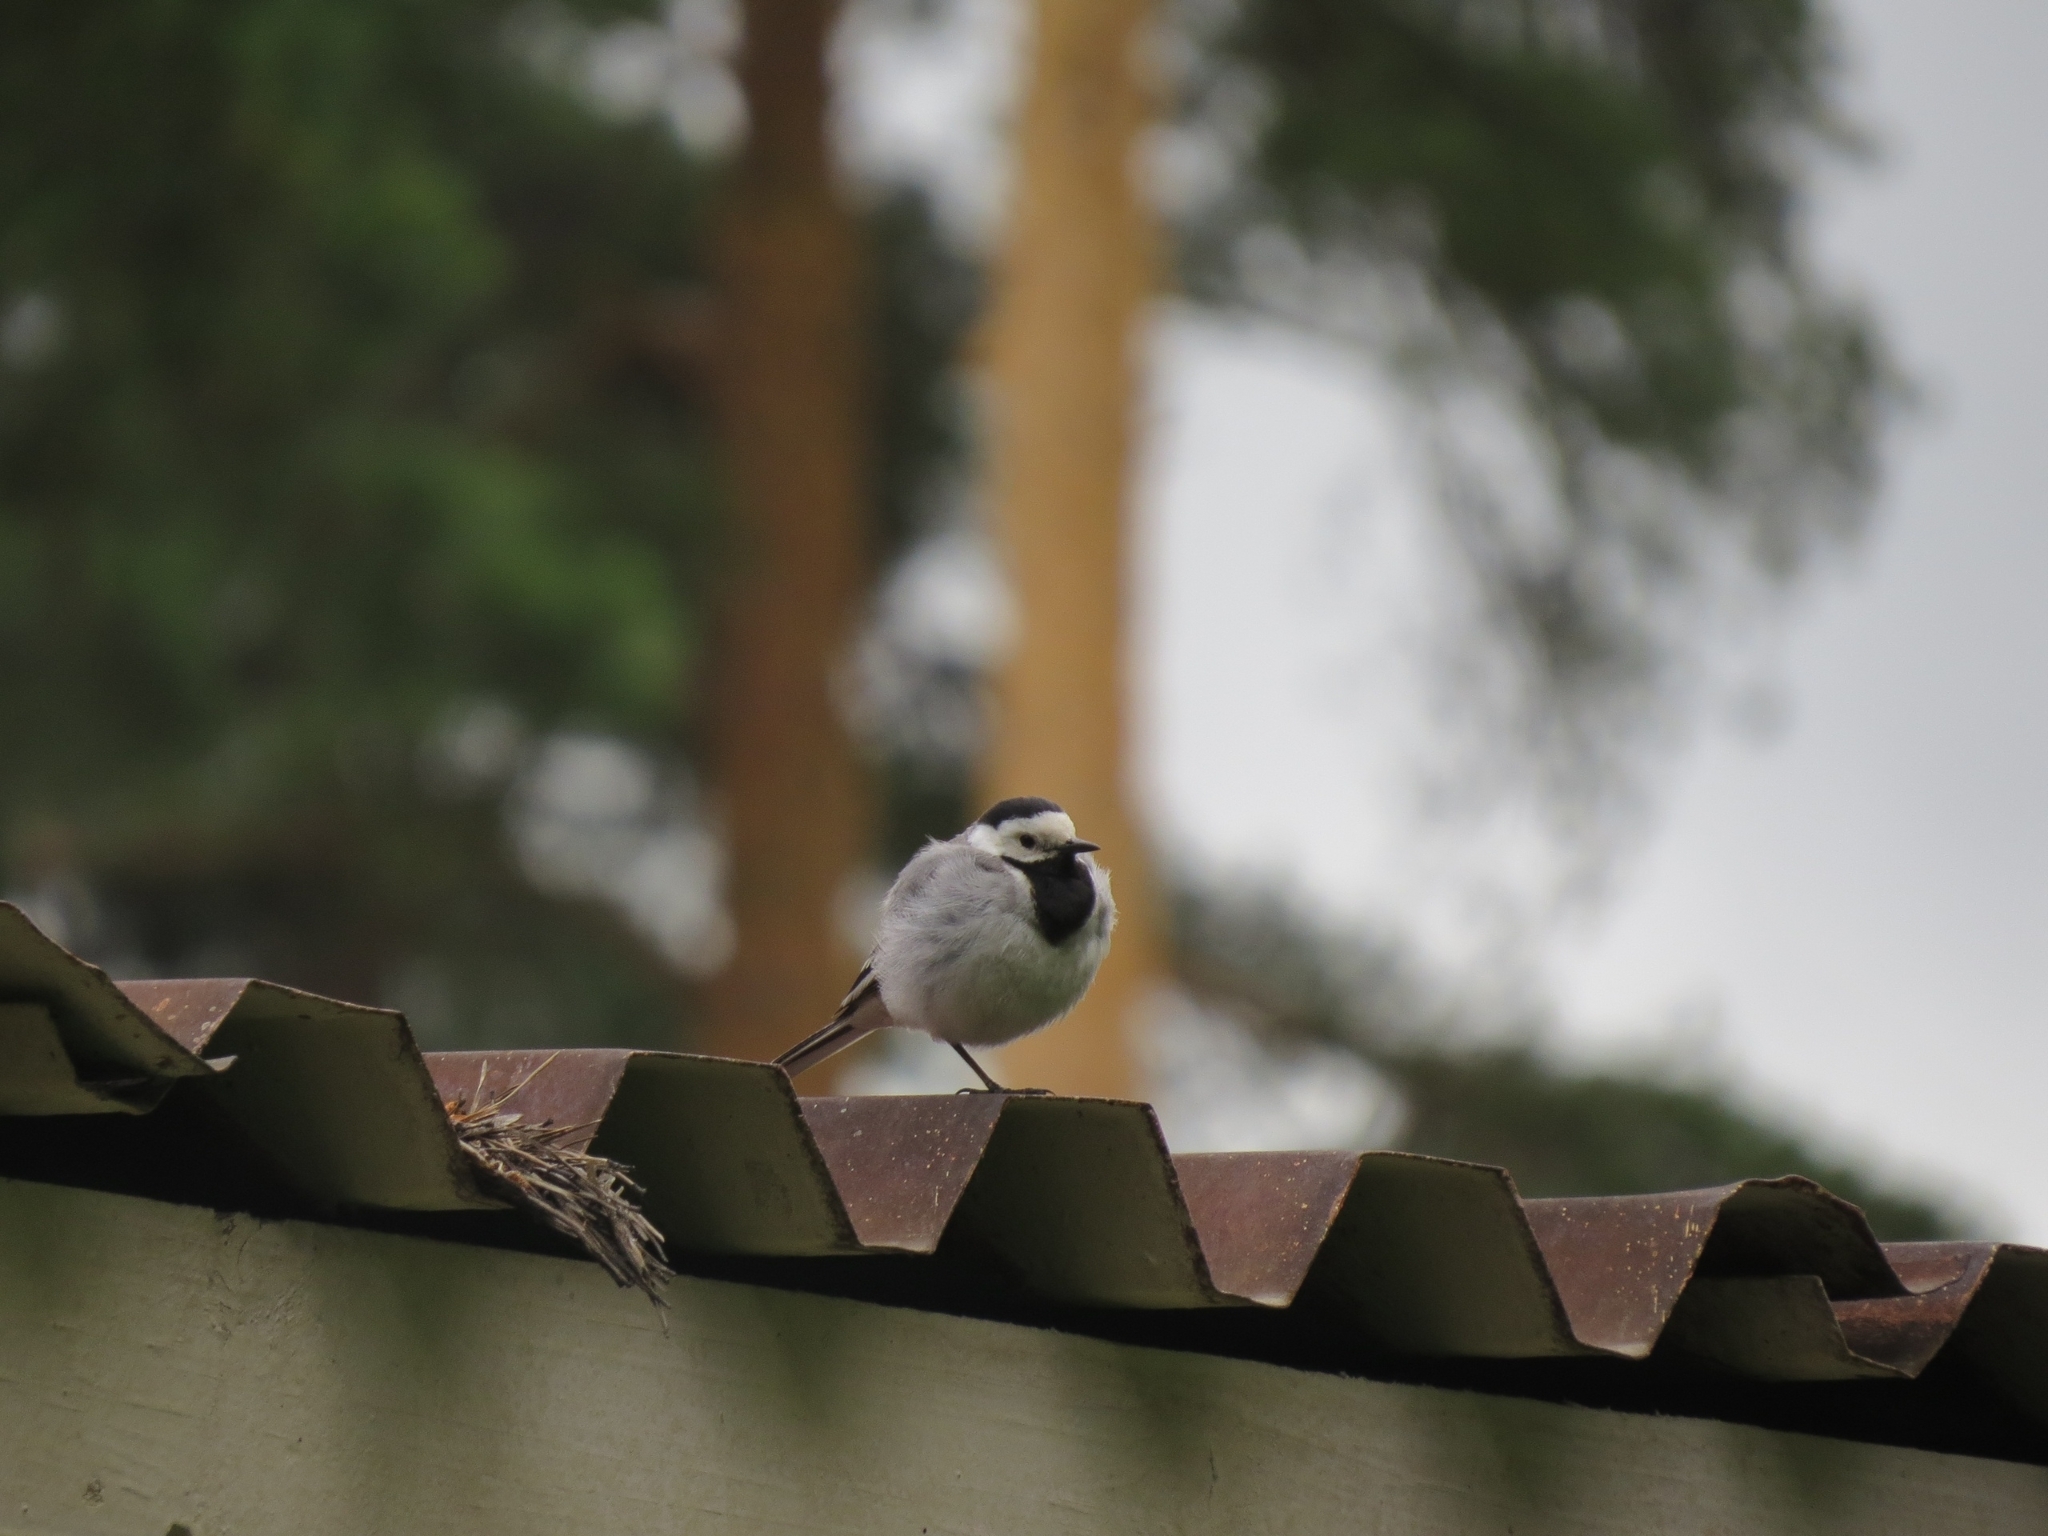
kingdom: Animalia
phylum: Chordata
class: Aves
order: Passeriformes
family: Motacillidae
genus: Motacilla
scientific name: Motacilla alba
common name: White wagtail
